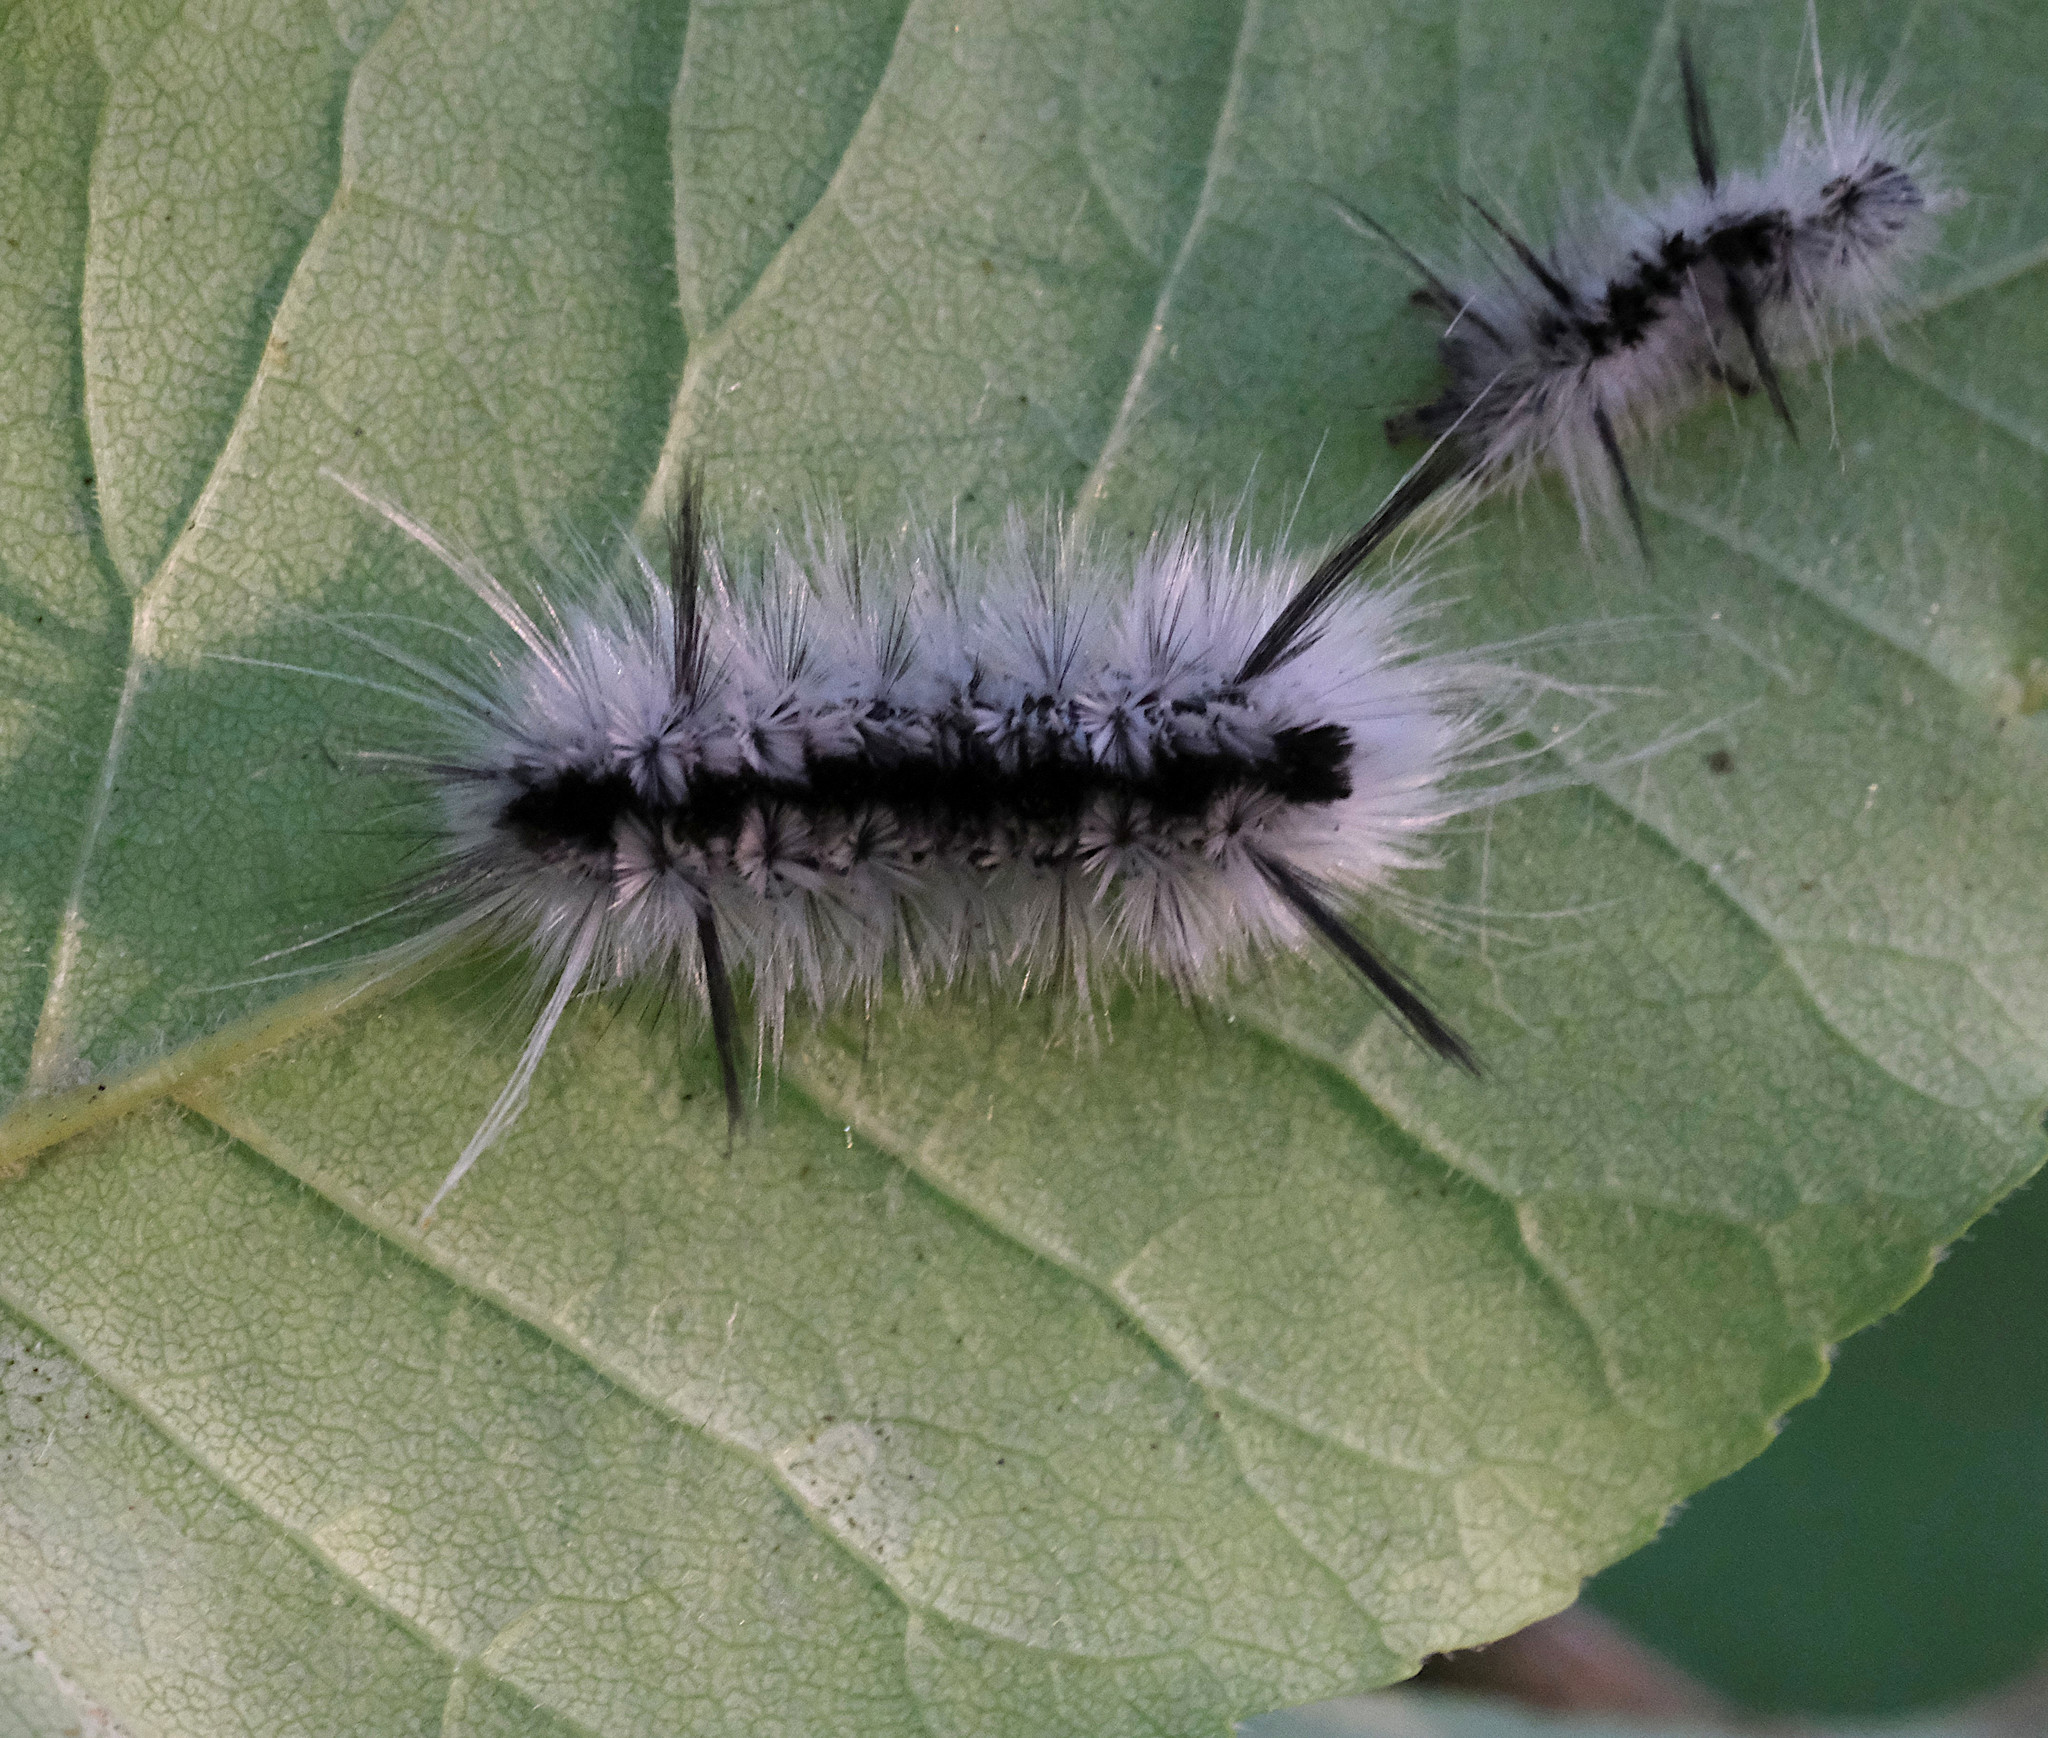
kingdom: Animalia
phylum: Arthropoda
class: Insecta
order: Lepidoptera
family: Erebidae
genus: Lophocampa
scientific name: Lophocampa caryae
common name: Hickory tussock moth
